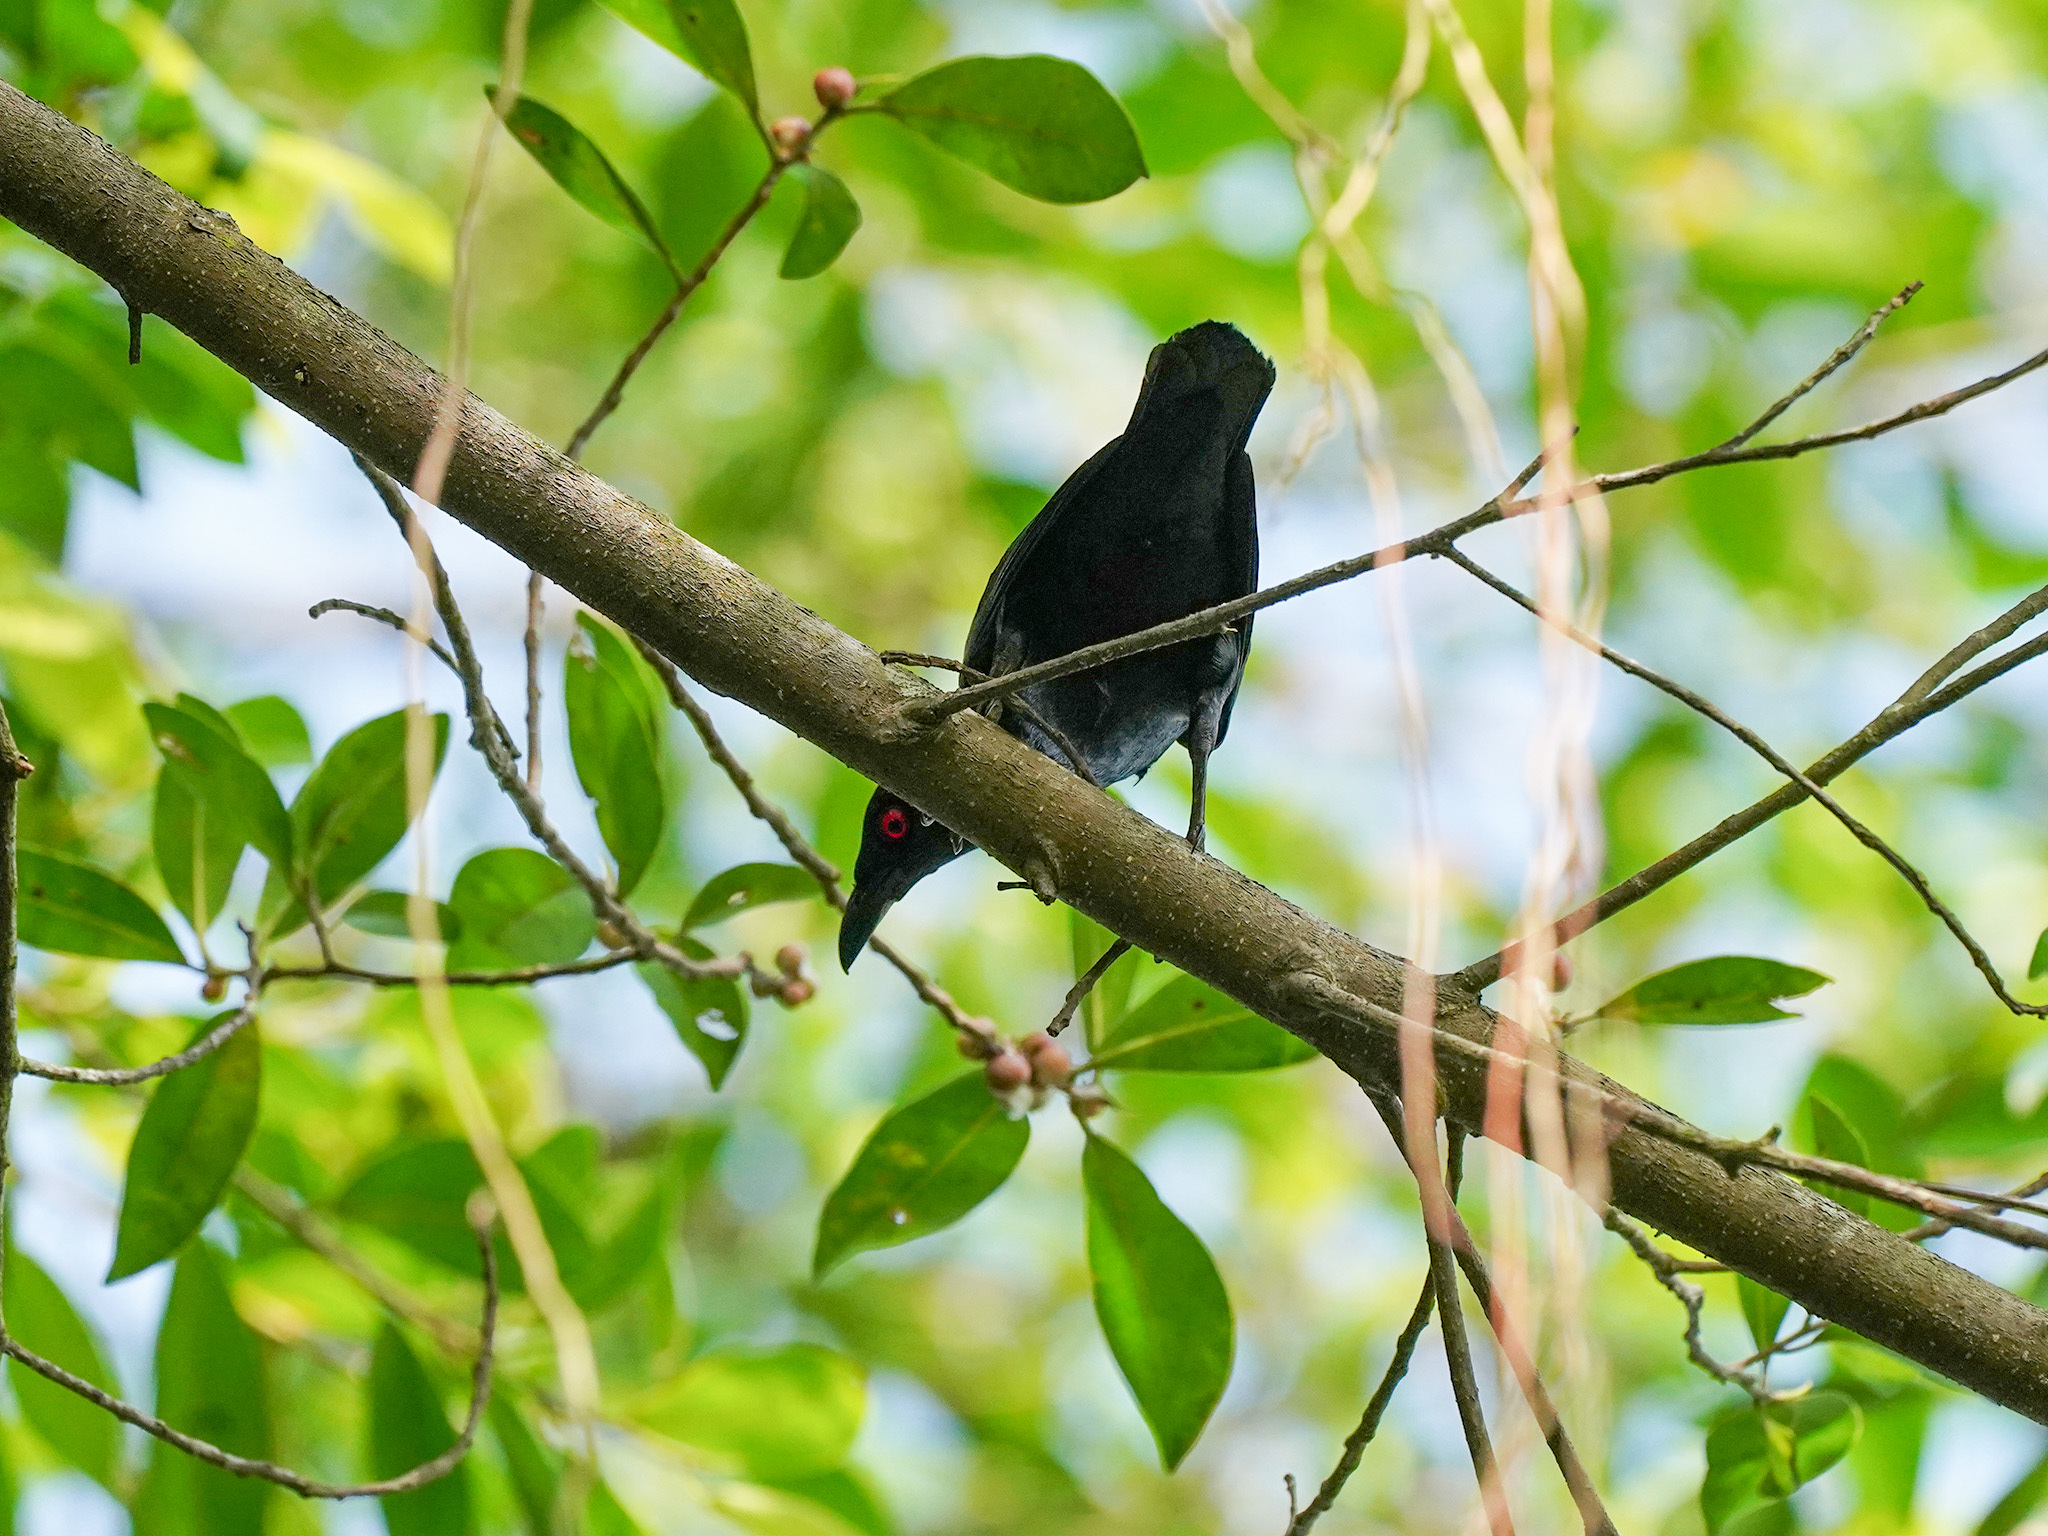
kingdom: Animalia
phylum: Chordata
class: Aves
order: Passeriformes
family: Sturnidae
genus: Aplonis
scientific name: Aplonis panayensis
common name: Asian glossy starling
